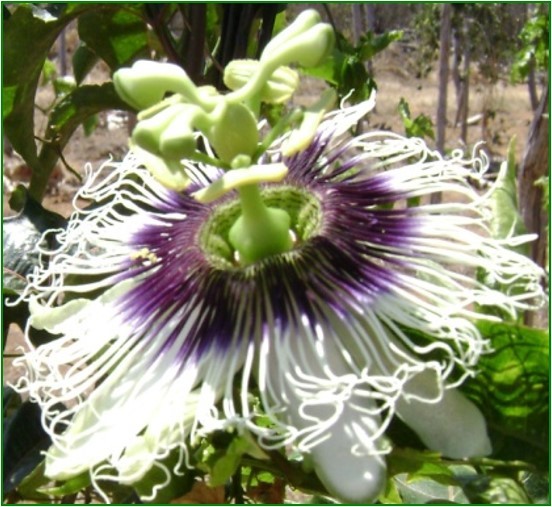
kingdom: Plantae
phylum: Tracheophyta
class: Magnoliopsida
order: Malpighiales
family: Passifloraceae
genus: Passiflora
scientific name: Passiflora edulis
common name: Purple granadilla
